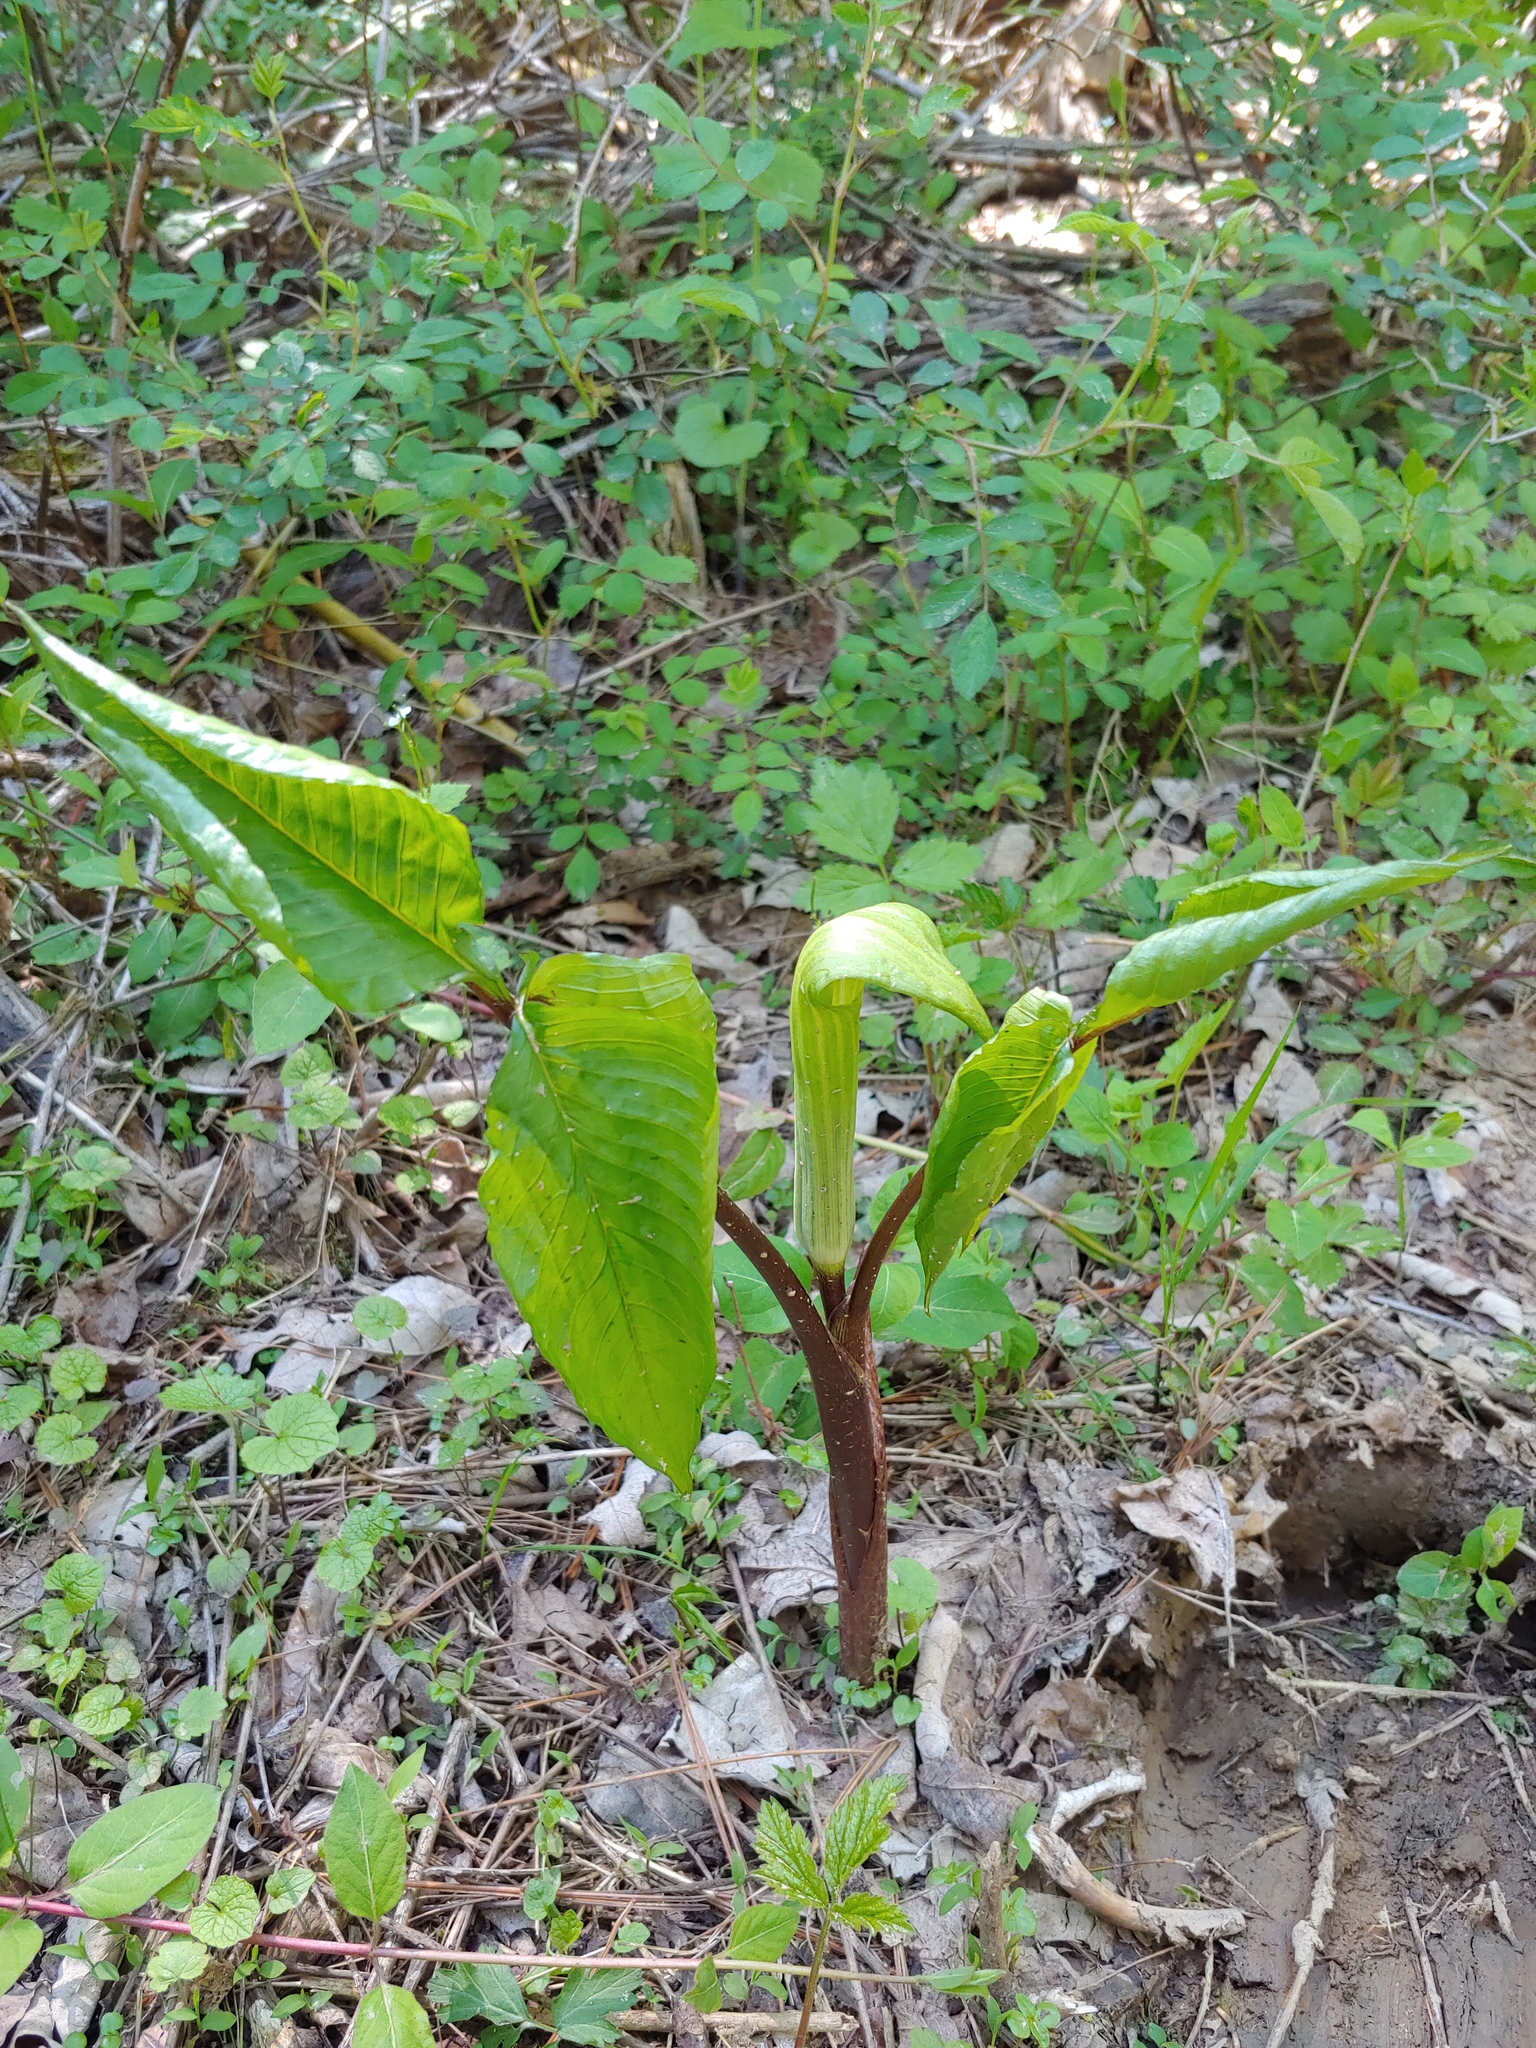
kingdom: Plantae
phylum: Tracheophyta
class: Liliopsida
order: Alismatales
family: Araceae
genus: Arisaema
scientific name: Arisaema triphyllum
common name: Jack-in-the-pulpit
